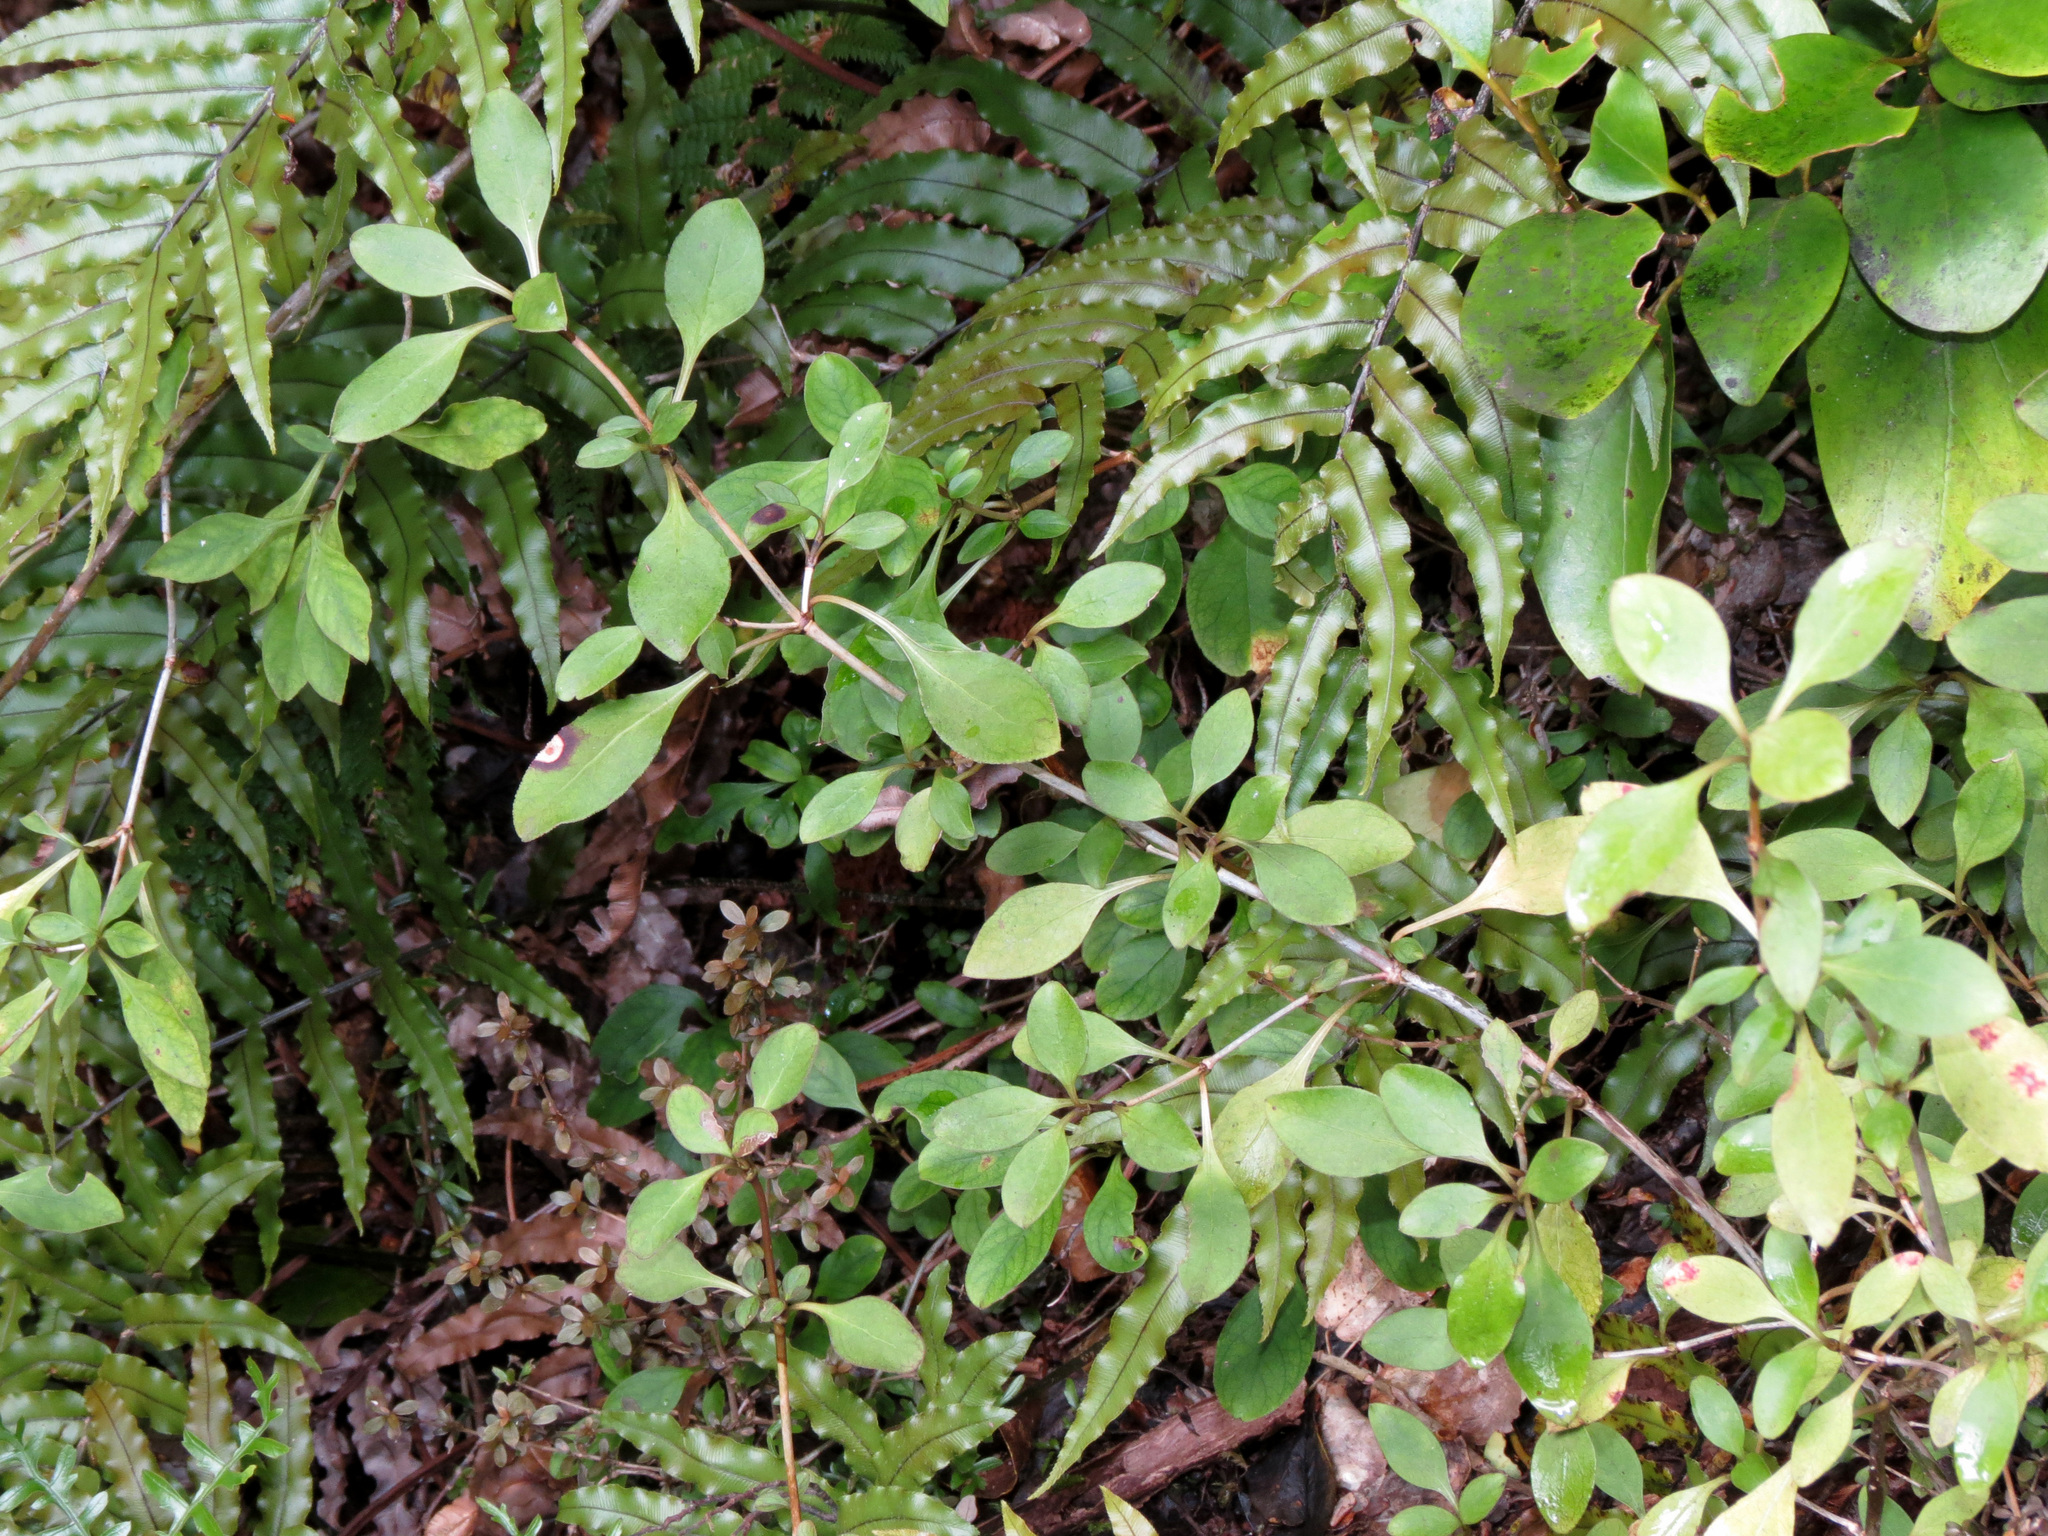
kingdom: Plantae
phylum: Tracheophyta
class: Magnoliopsida
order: Gentianales
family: Rubiaceae
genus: Coprosma
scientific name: Coprosma foetidissima
